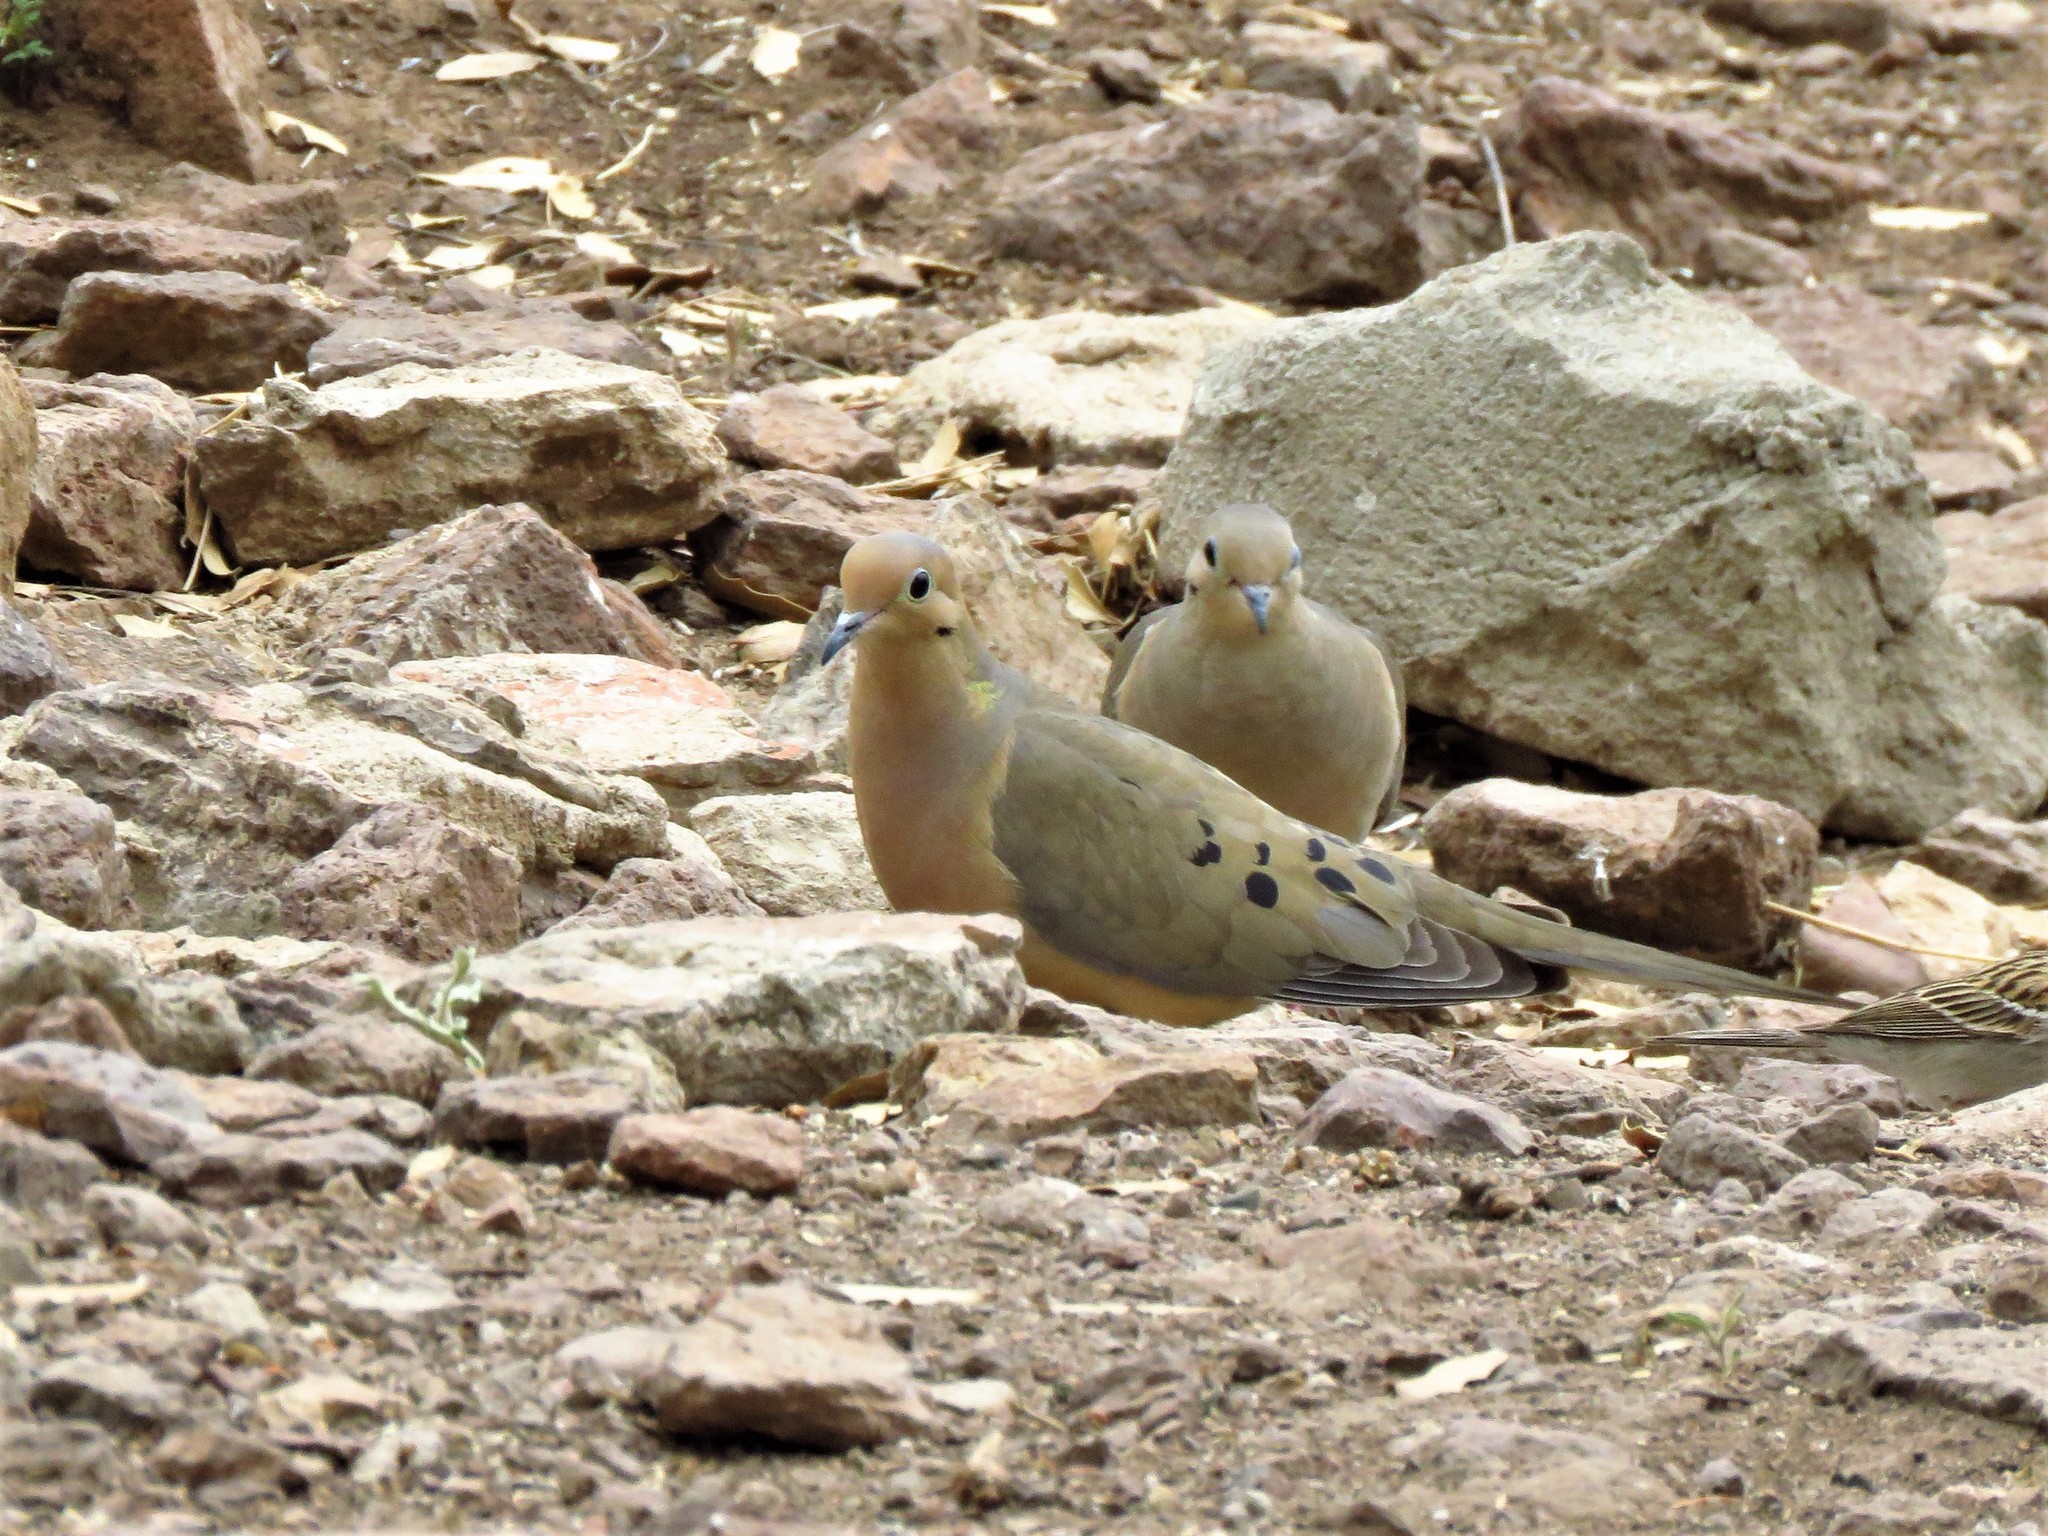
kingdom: Animalia
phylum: Chordata
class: Aves
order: Columbiformes
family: Columbidae
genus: Zenaida
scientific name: Zenaida macroura
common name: Mourning dove
